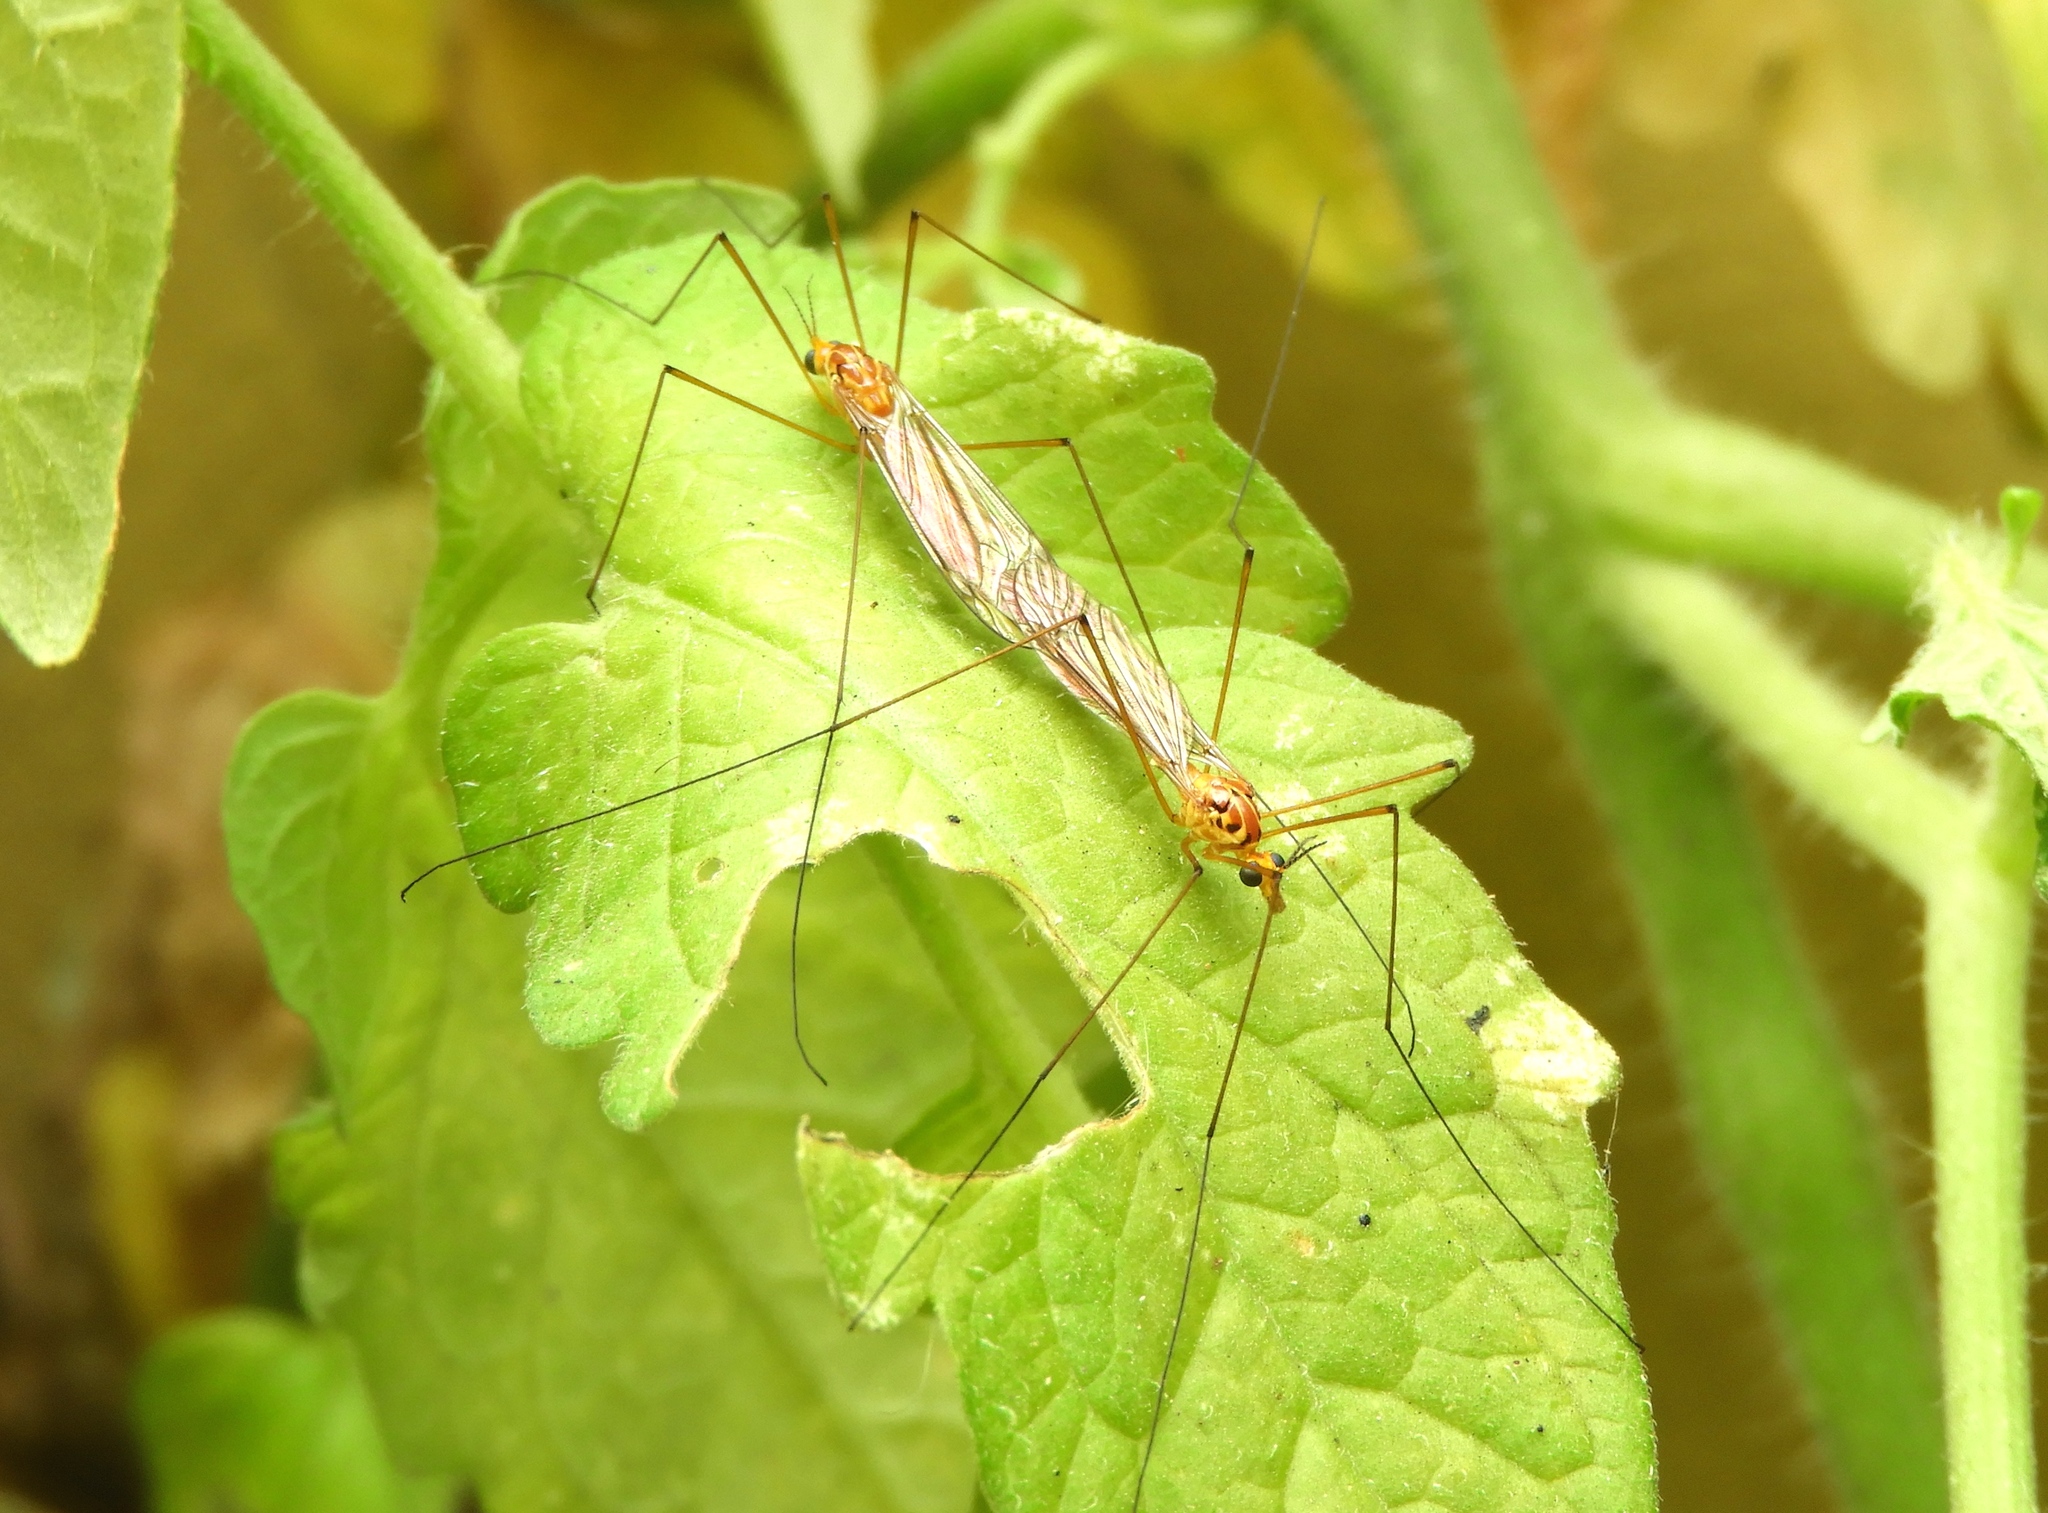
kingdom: Animalia
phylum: Arthropoda
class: Insecta
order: Diptera
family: Tipulidae
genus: Nephrotoma
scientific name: Nephrotoma
